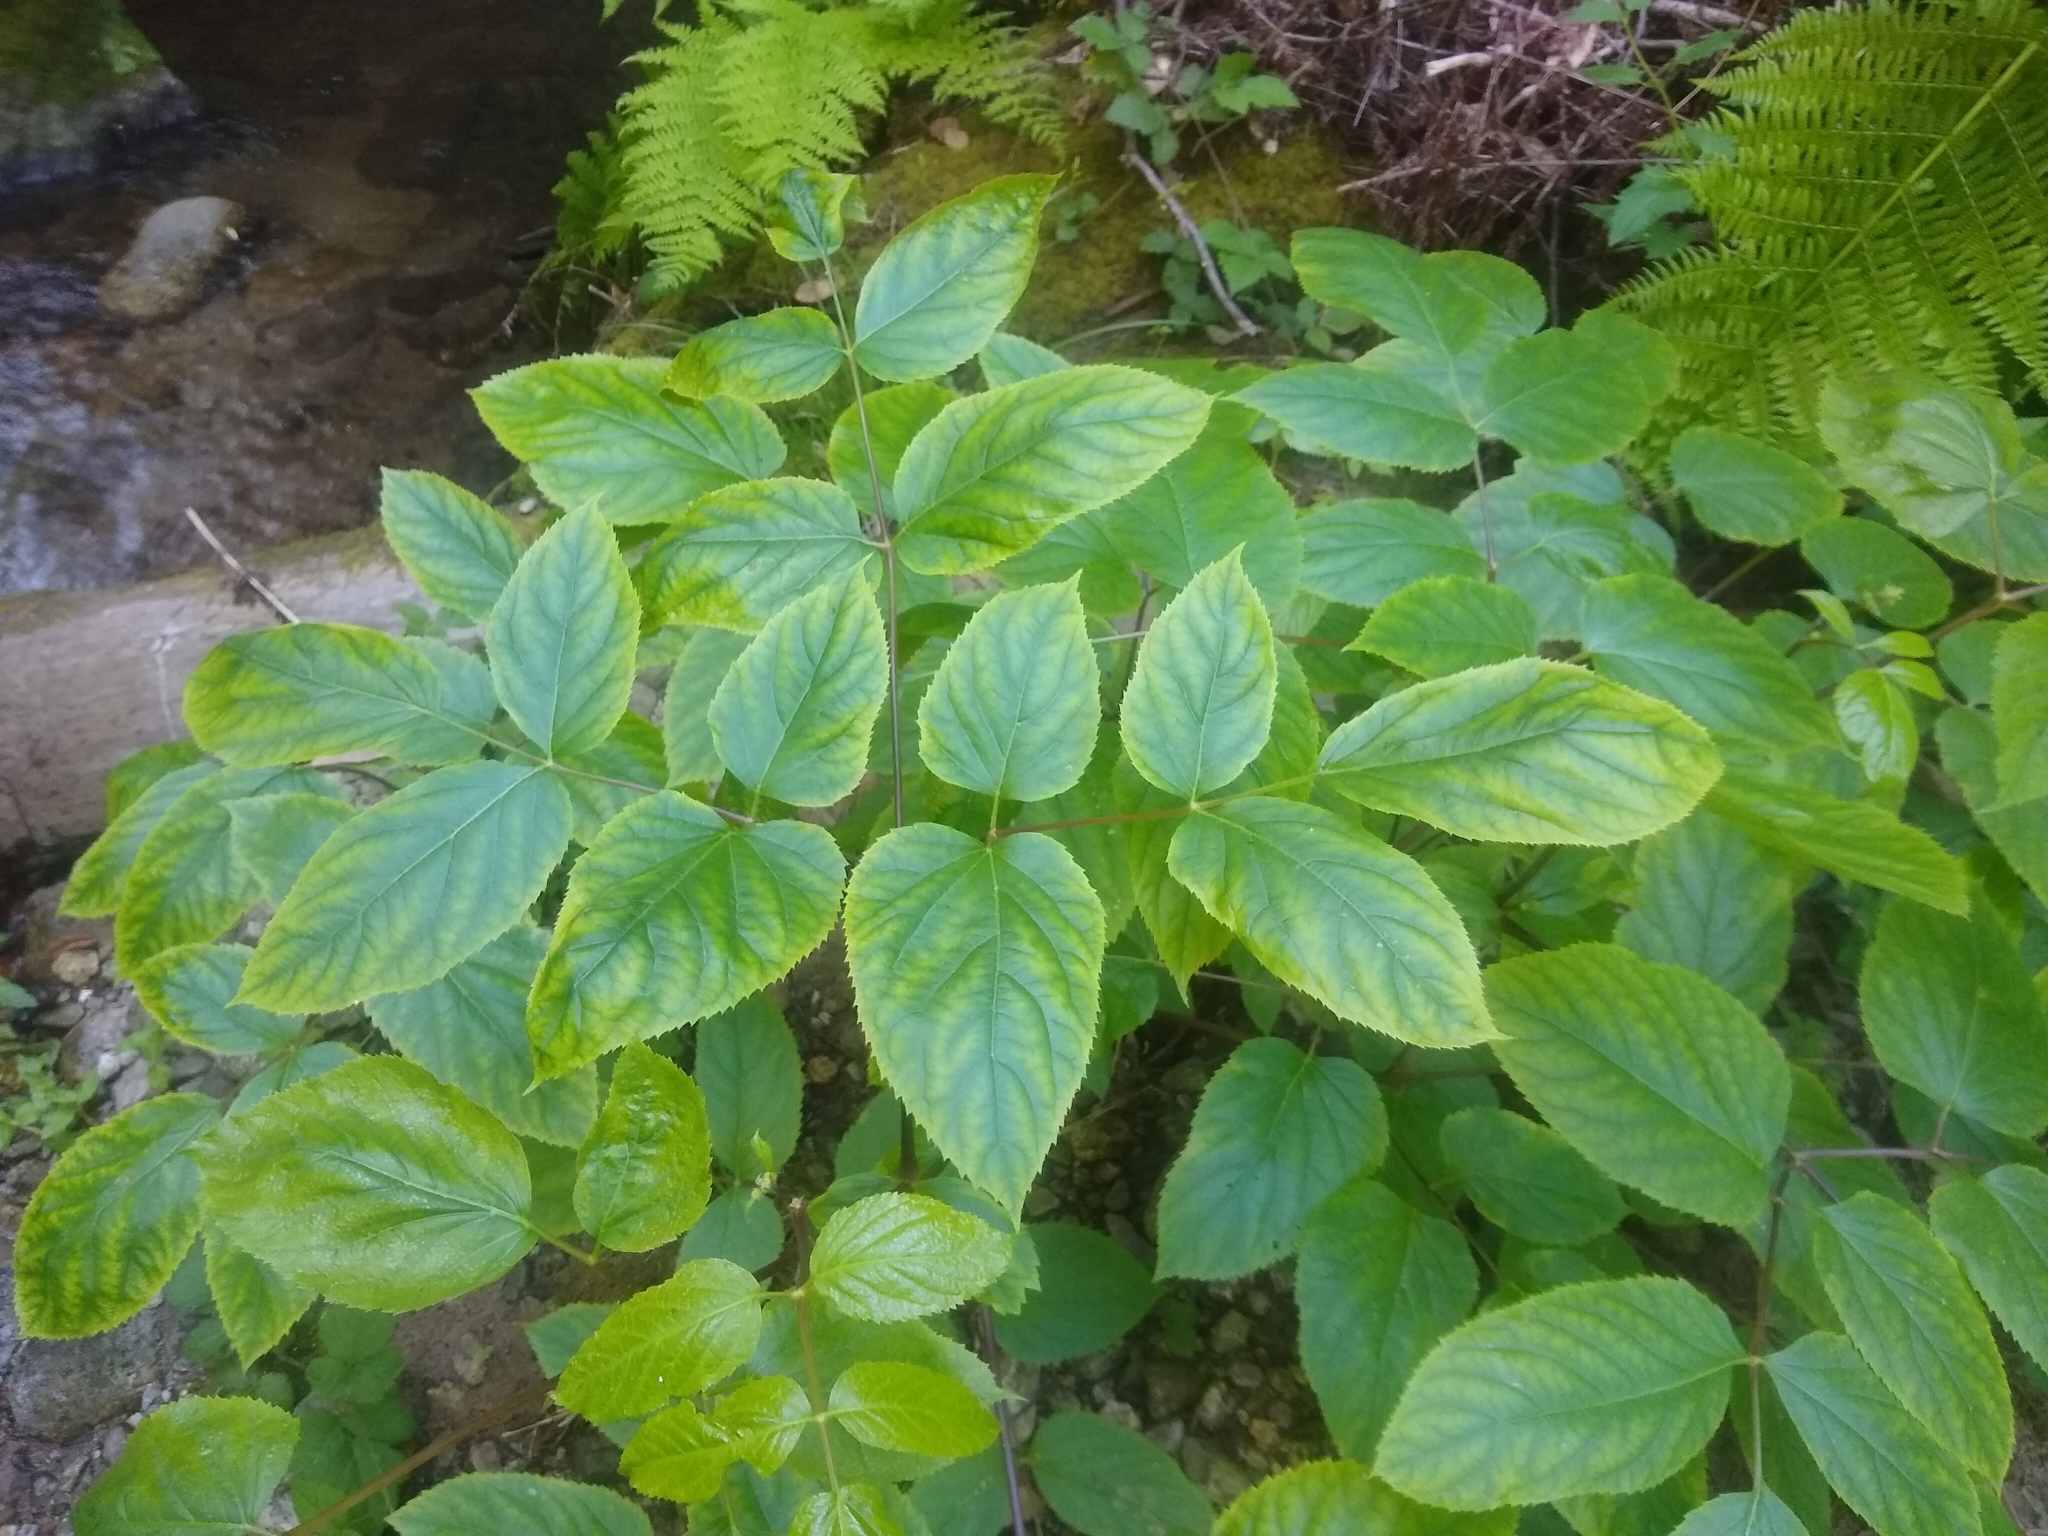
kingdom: Plantae
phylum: Tracheophyta
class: Magnoliopsida
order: Apiales
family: Araliaceae
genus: Aralia
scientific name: Aralia californica
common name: California-ginseng
